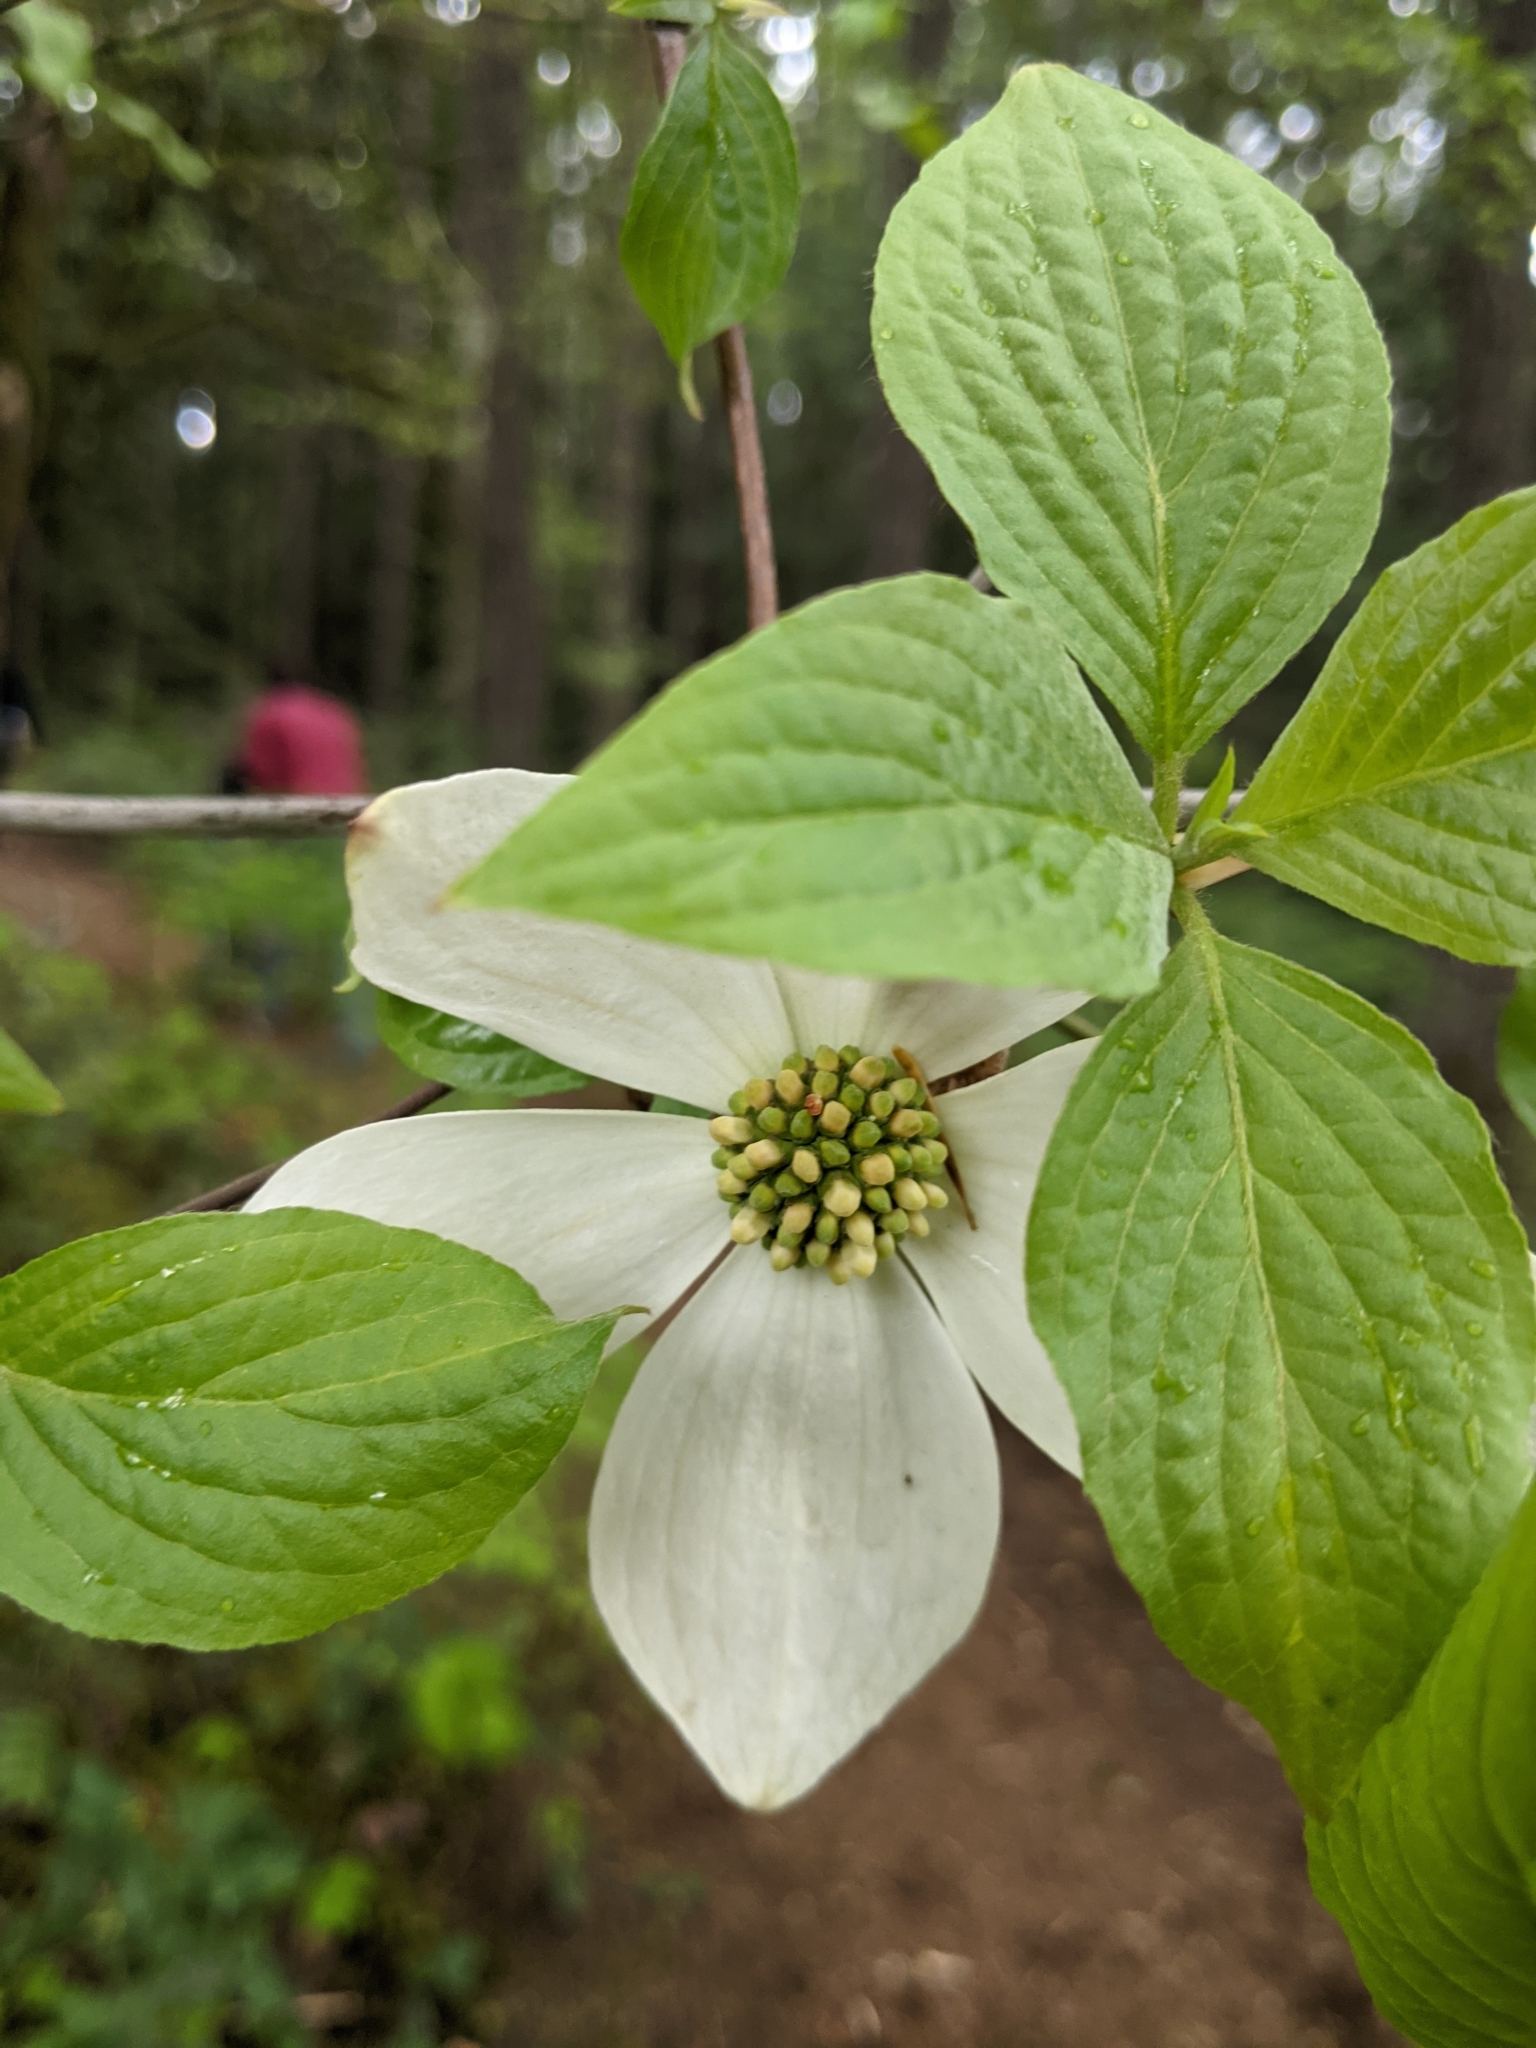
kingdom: Plantae
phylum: Tracheophyta
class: Magnoliopsida
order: Cornales
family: Cornaceae
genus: Cornus
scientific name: Cornus nuttallii
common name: Pacific dogwood
